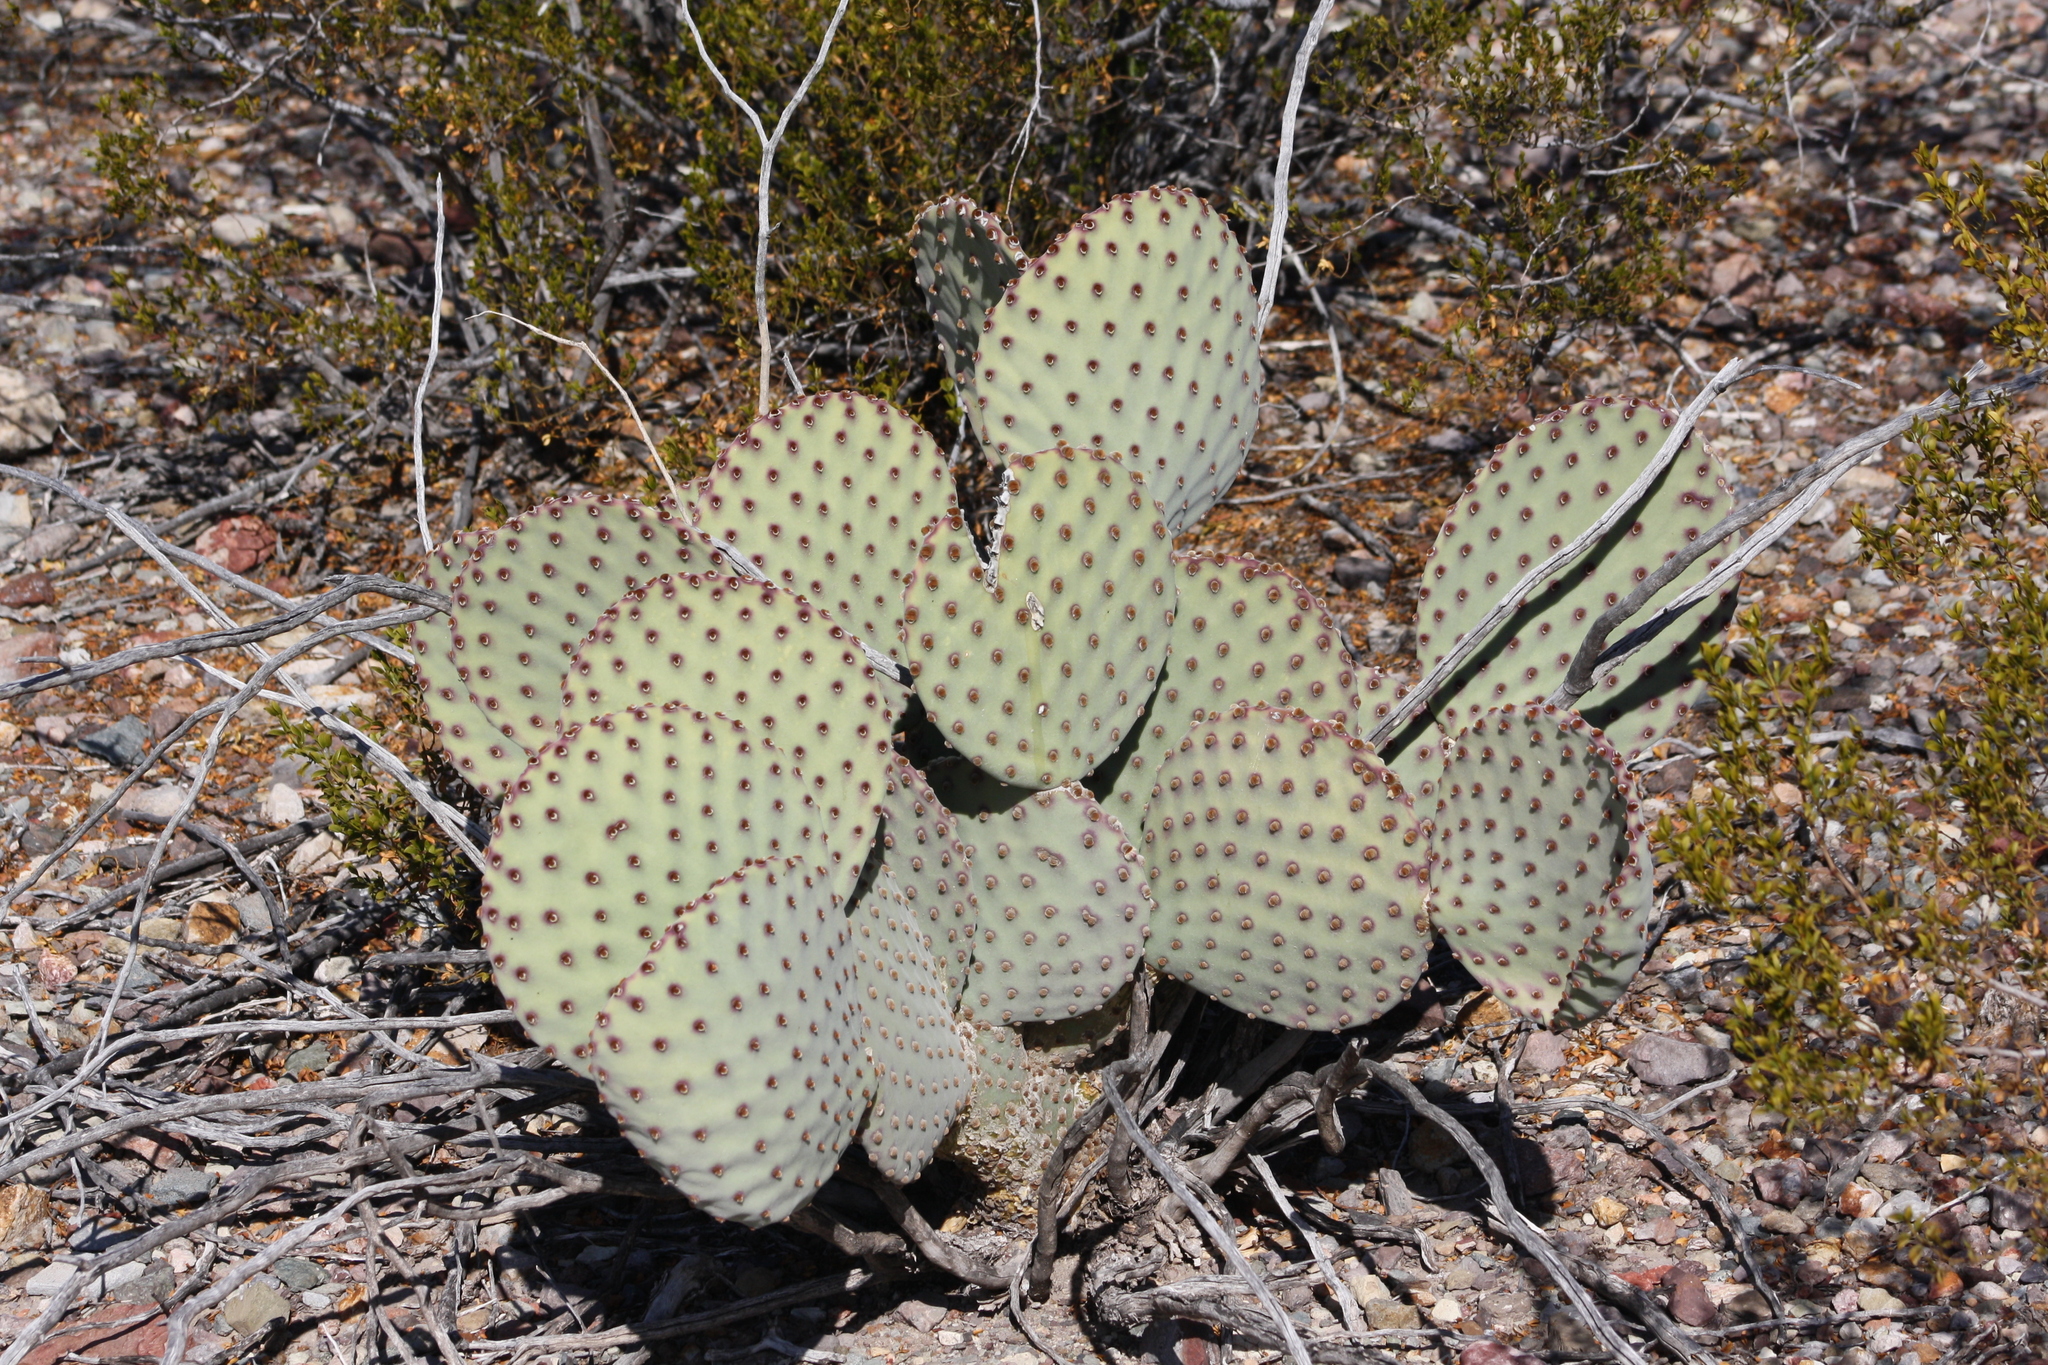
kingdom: Plantae
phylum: Tracheophyta
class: Magnoliopsida
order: Caryophyllales
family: Cactaceae
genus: Opuntia
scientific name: Opuntia rufida
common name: Blind pricklypear
